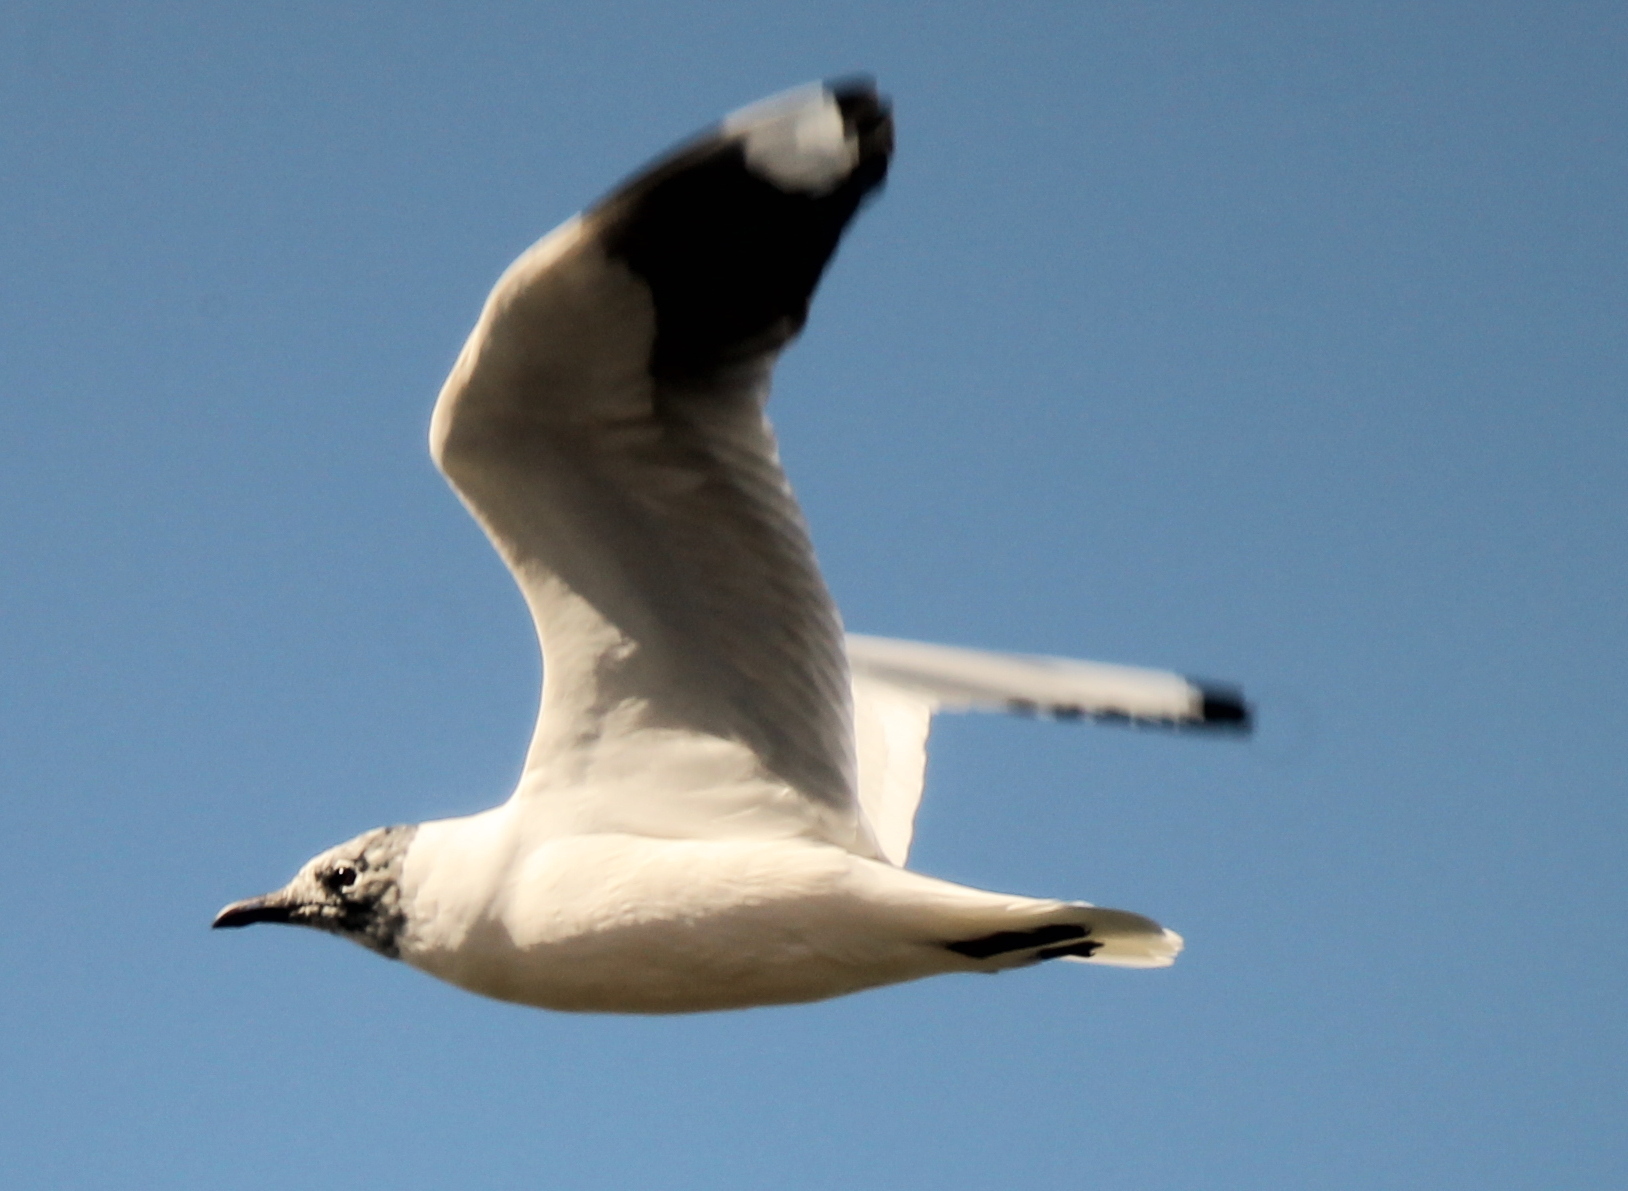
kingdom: Animalia
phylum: Chordata
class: Aves
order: Charadriiformes
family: Laridae
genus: Chroicocephalus
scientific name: Chroicocephalus serranus
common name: Andean gull
